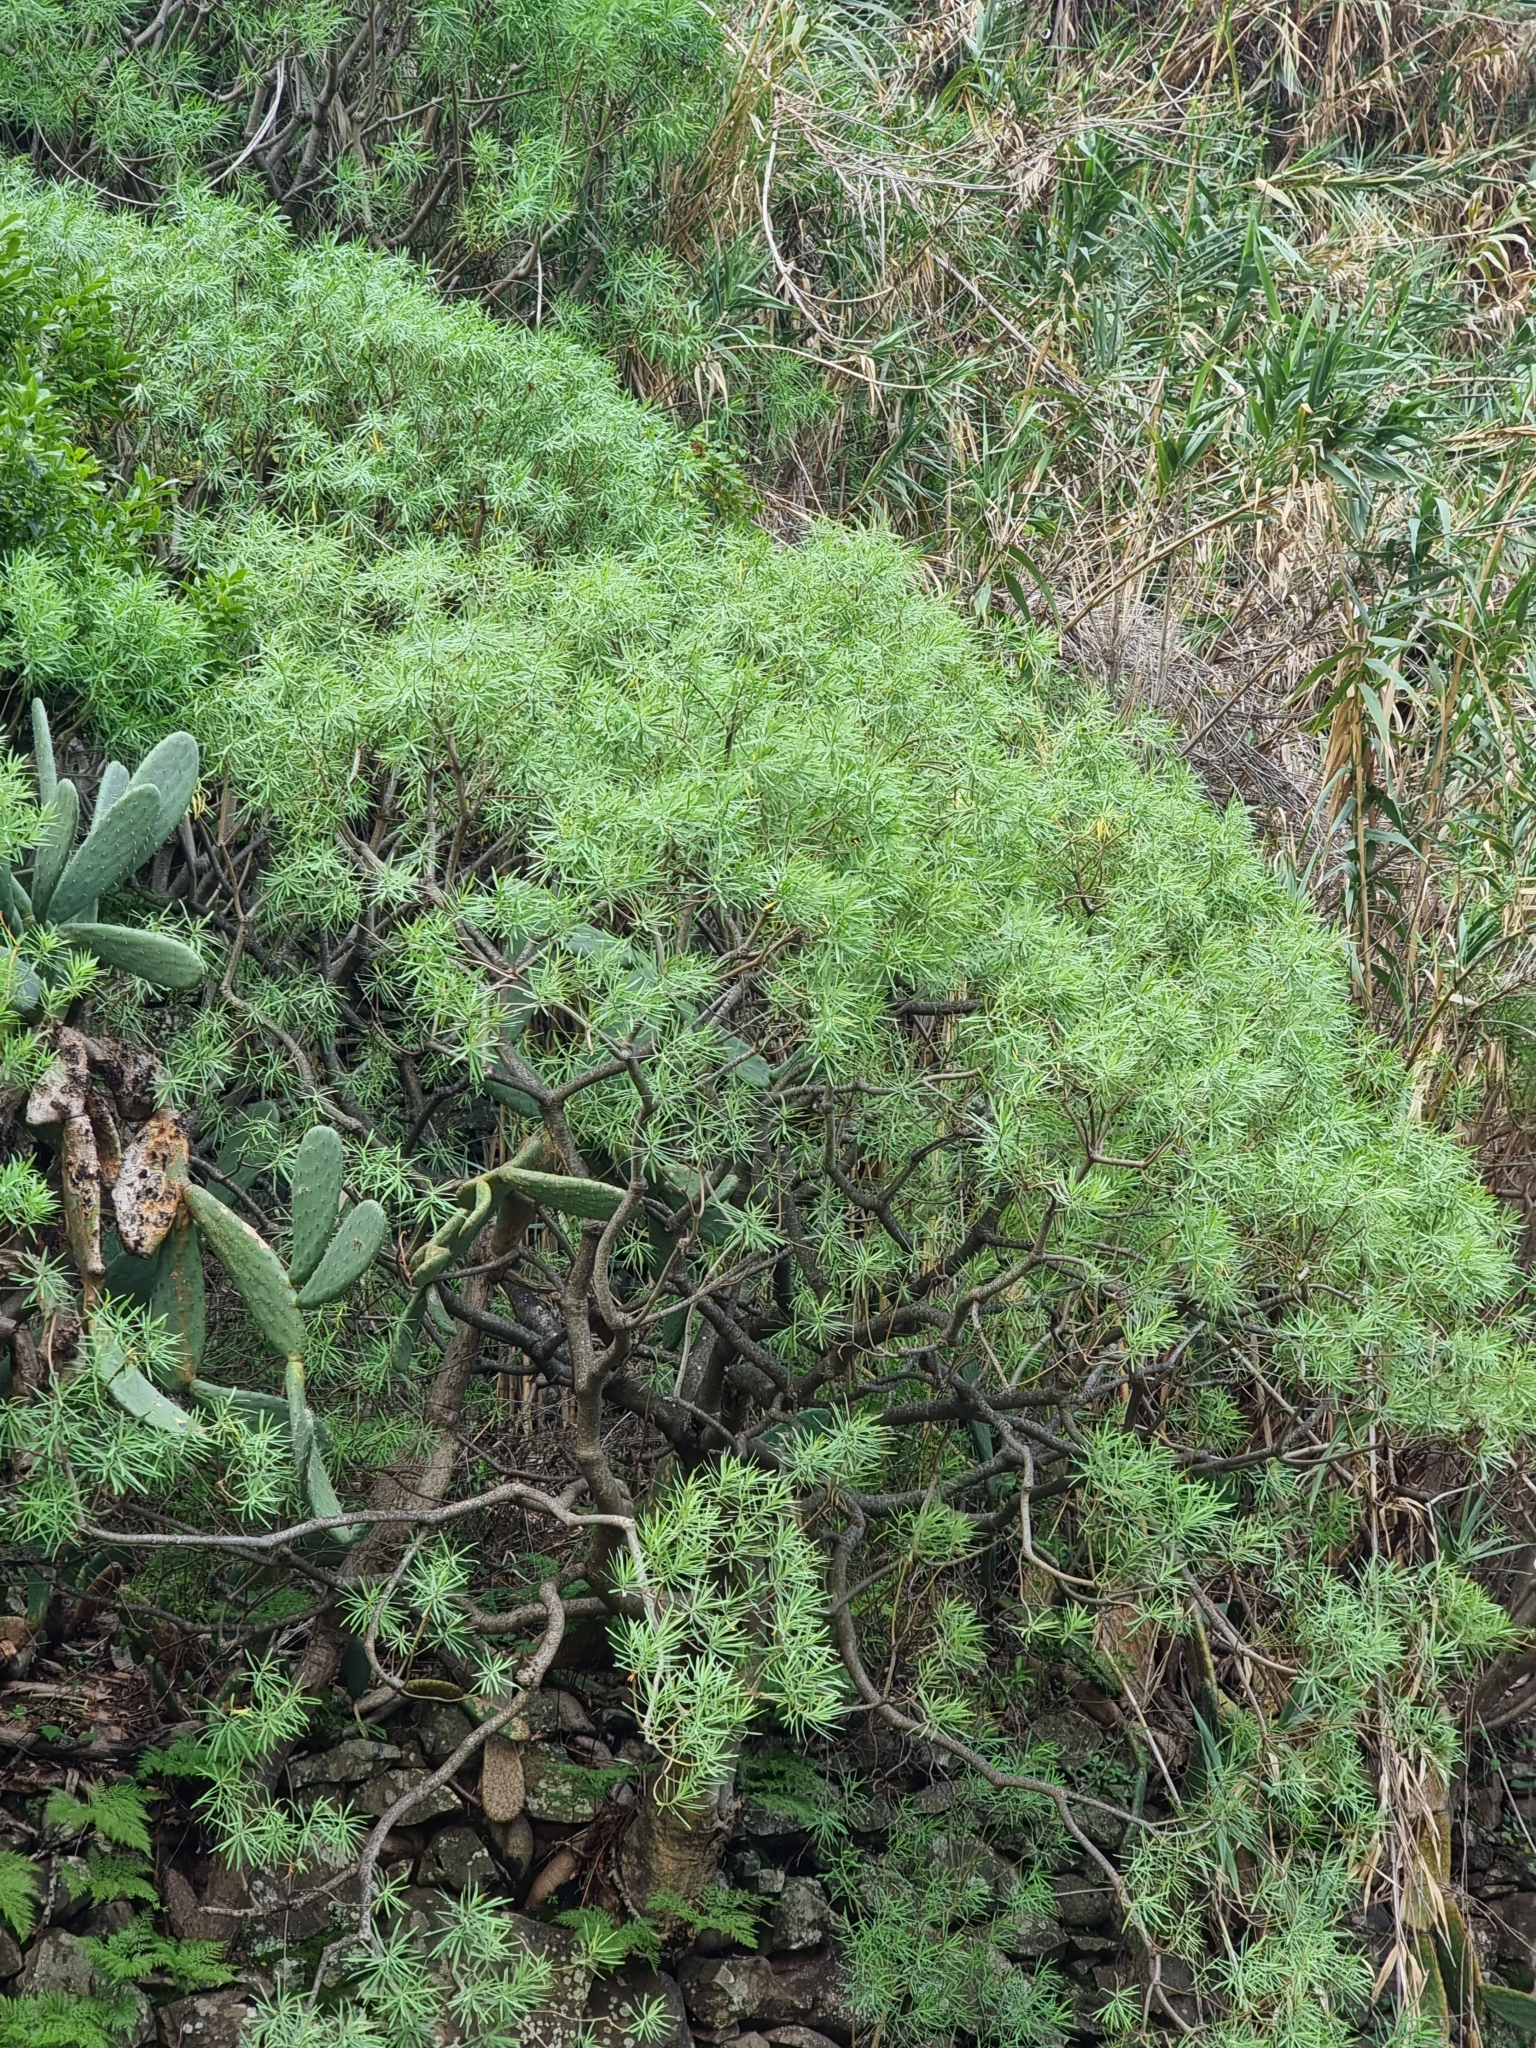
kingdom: Plantae
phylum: Tracheophyta
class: Magnoliopsida
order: Malpighiales
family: Euphorbiaceae
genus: Euphorbia
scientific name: Euphorbia piscatoria
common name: Fish-stunning spurge
